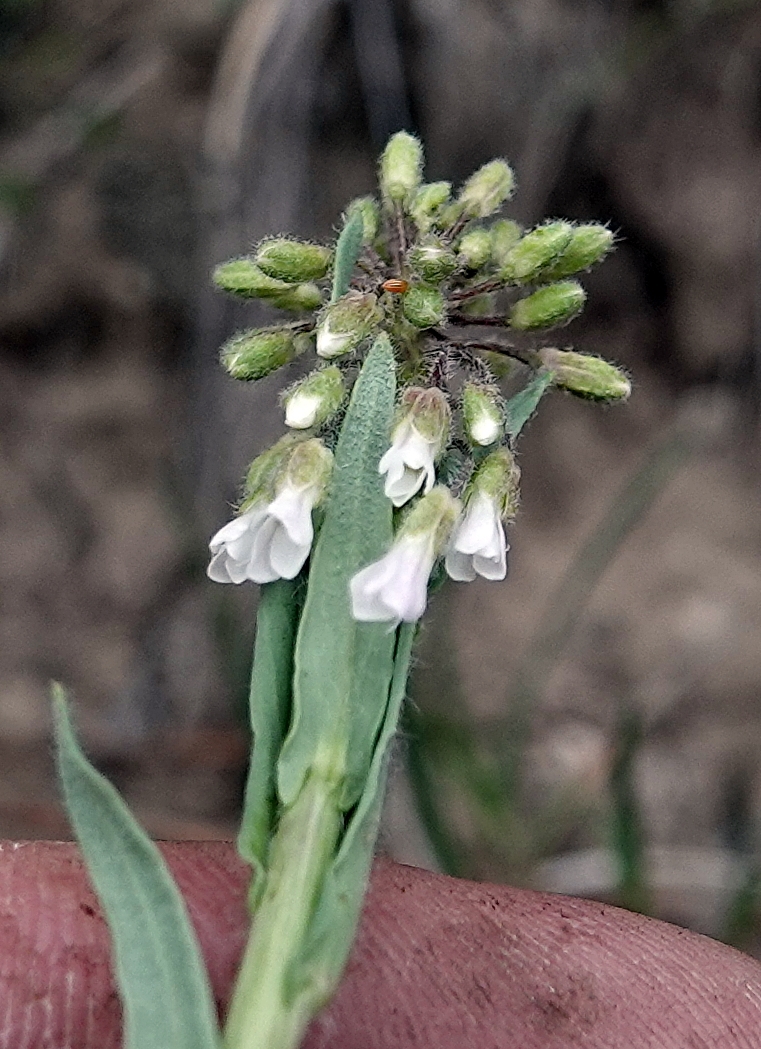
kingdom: Plantae
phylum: Tracheophyta
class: Magnoliopsida
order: Brassicales
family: Brassicaceae
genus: Boechera
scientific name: Boechera collinsii
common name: Collins' rockcress
